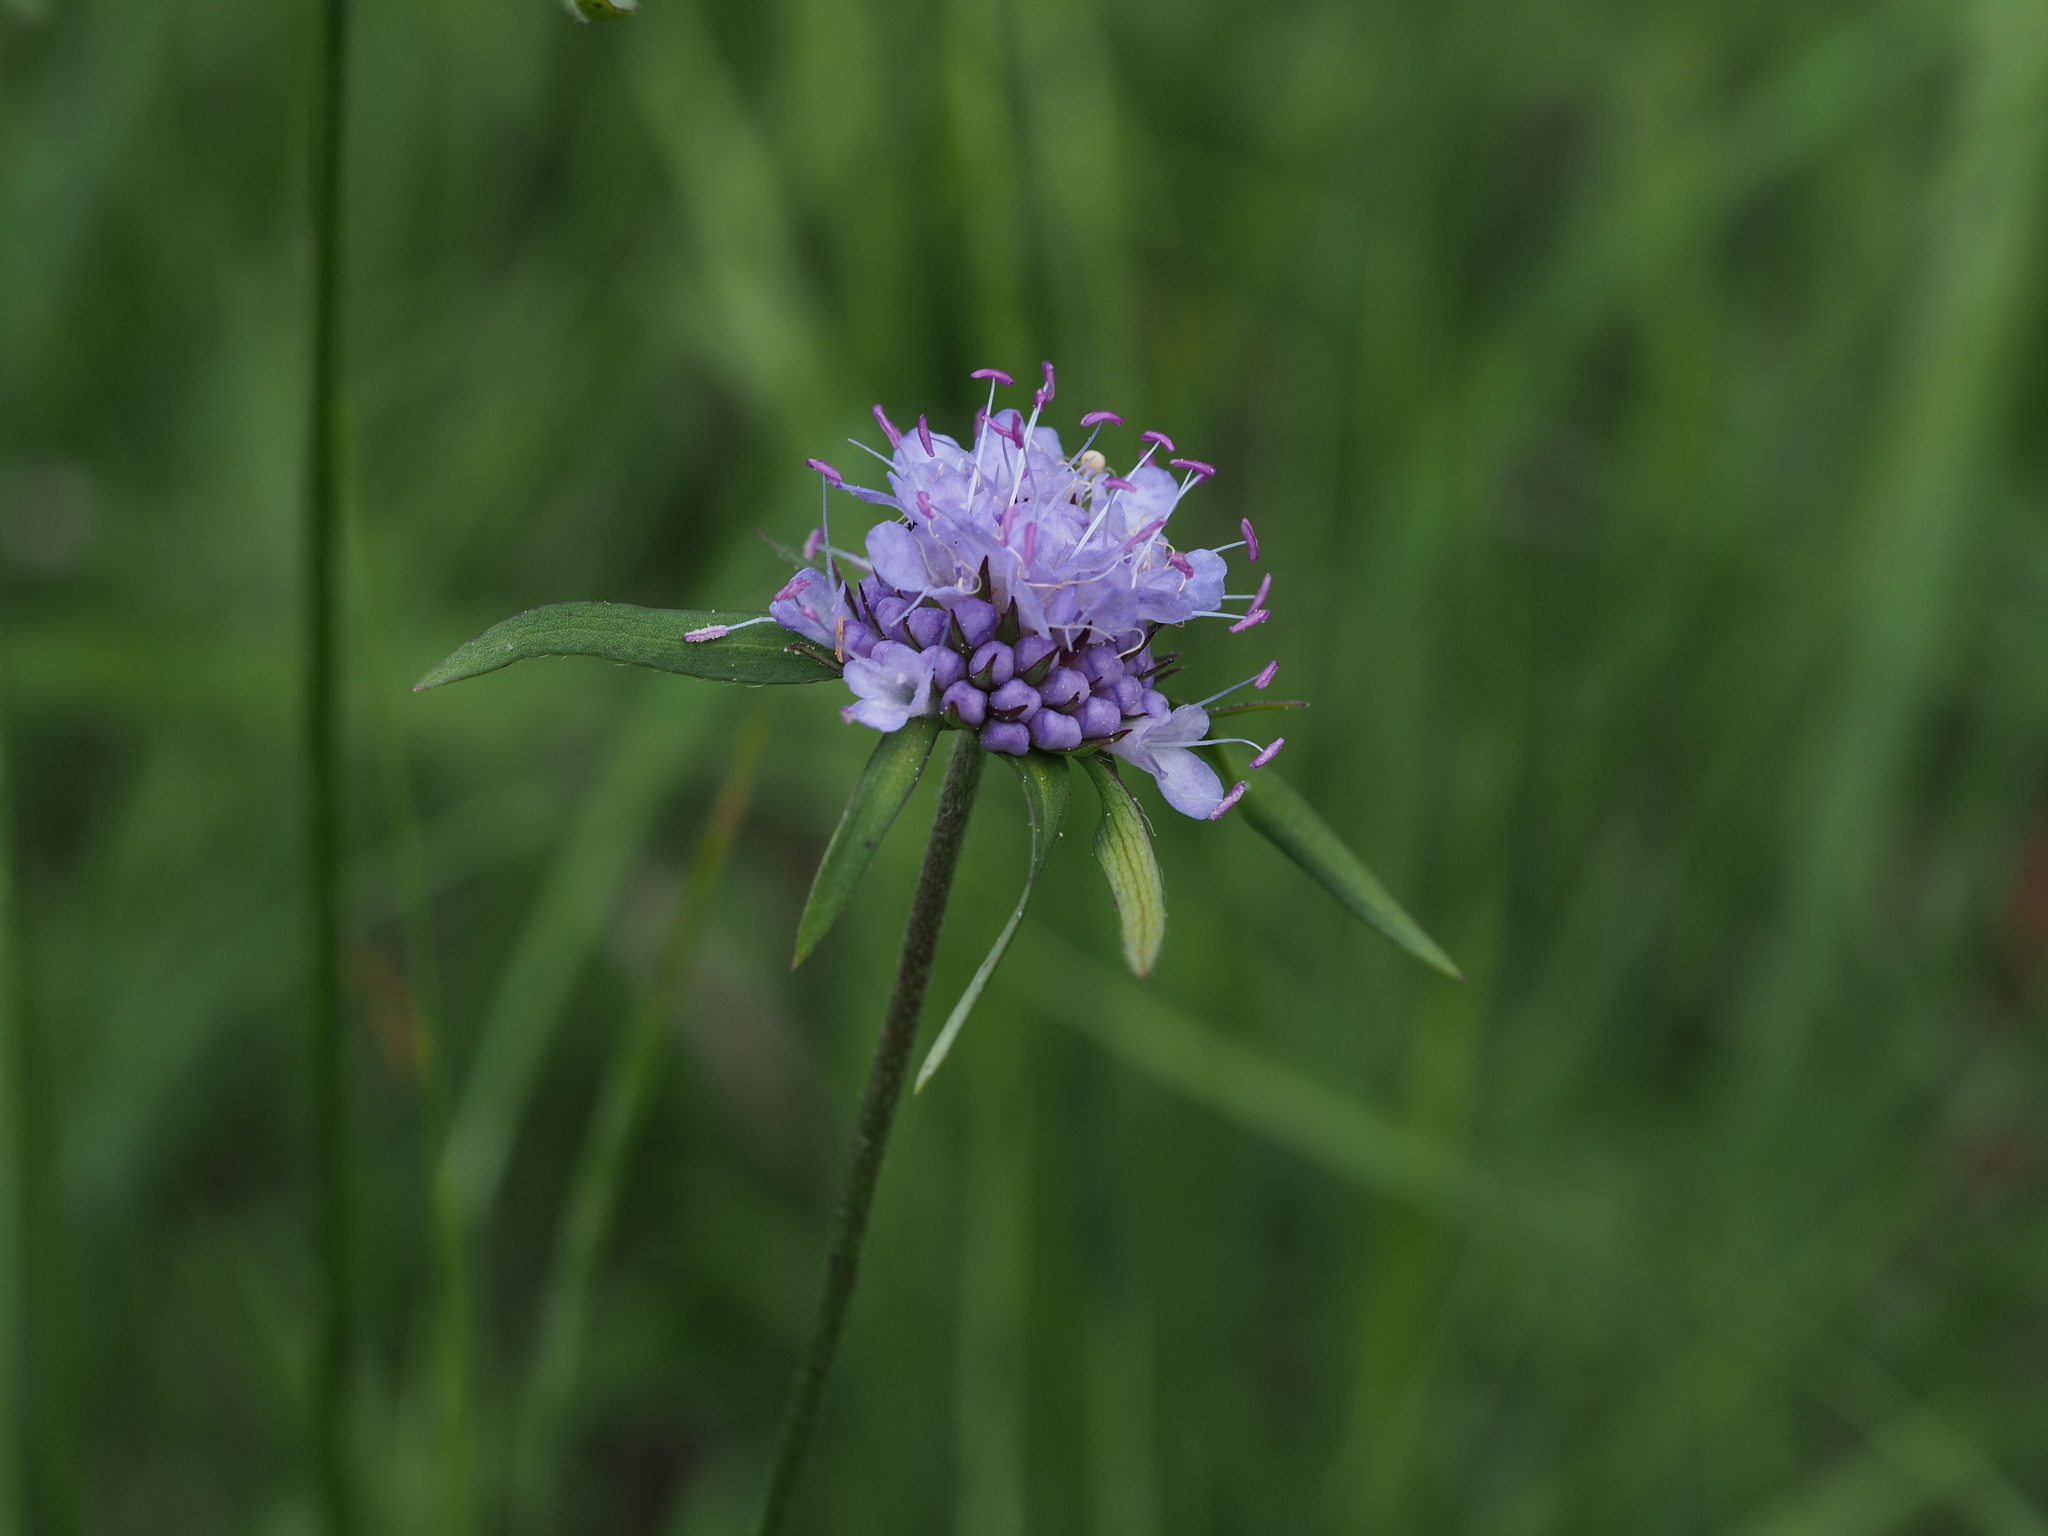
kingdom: Plantae
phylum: Tracheophyta
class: Magnoliopsida
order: Dipsacales
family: Caprifoliaceae
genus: Succisa
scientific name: Succisa pratensis
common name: Devil's-bit
